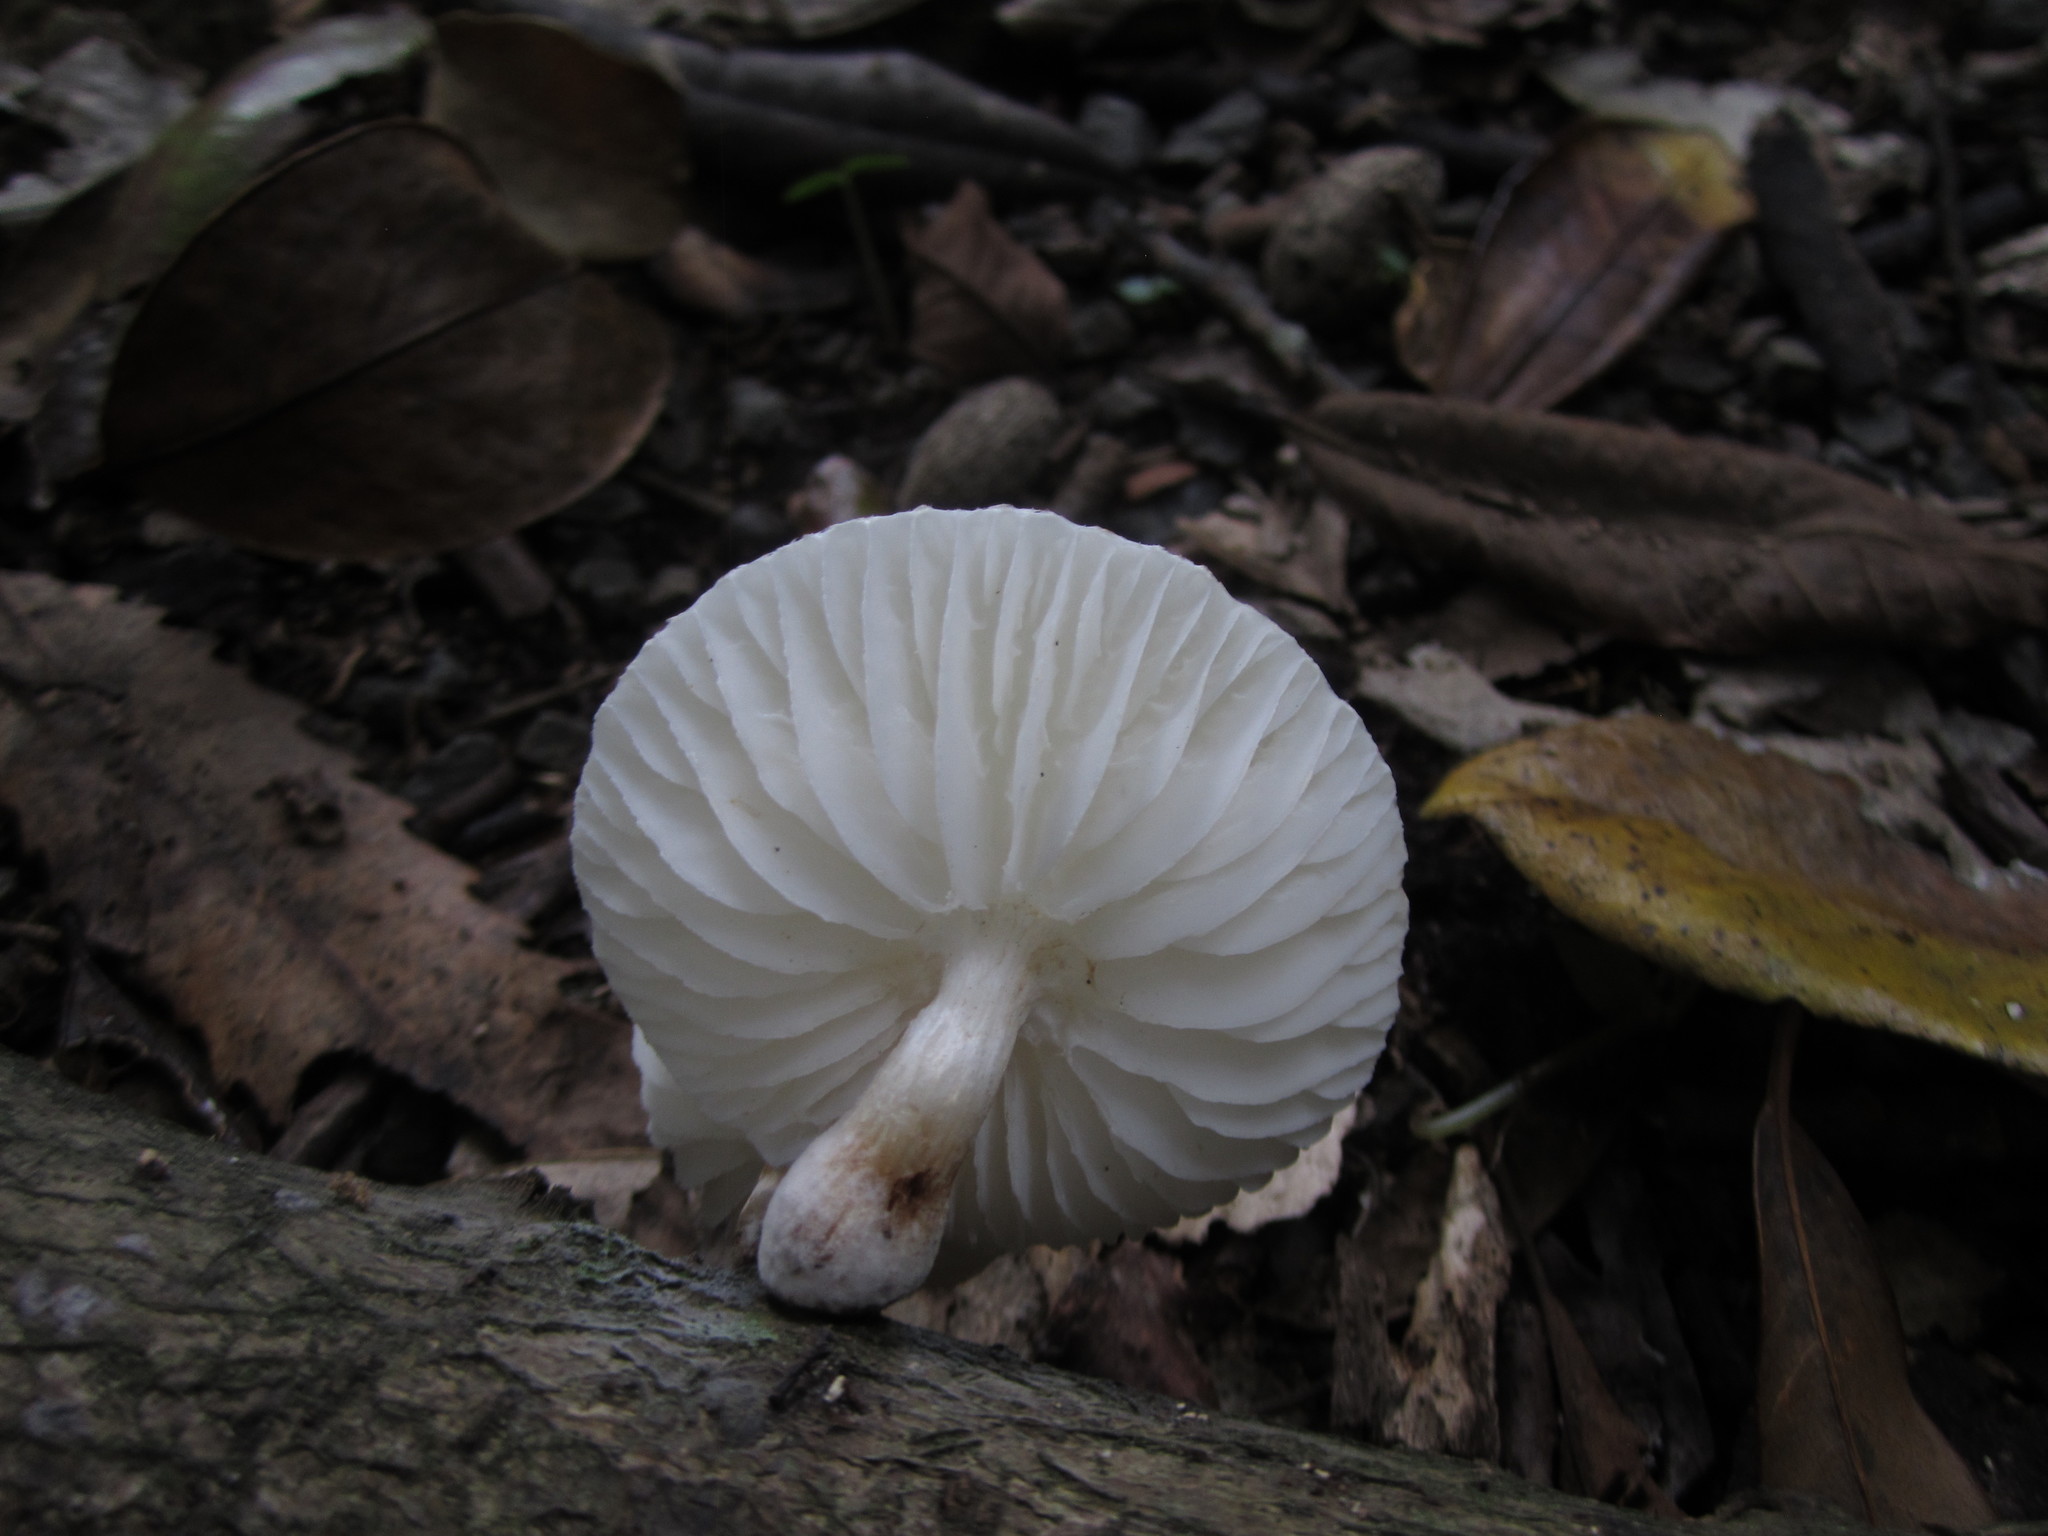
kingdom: Fungi
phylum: Basidiomycota
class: Agaricomycetes
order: Agaricales
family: Physalacriaceae
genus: Oudemansiella
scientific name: Oudemansiella australis
